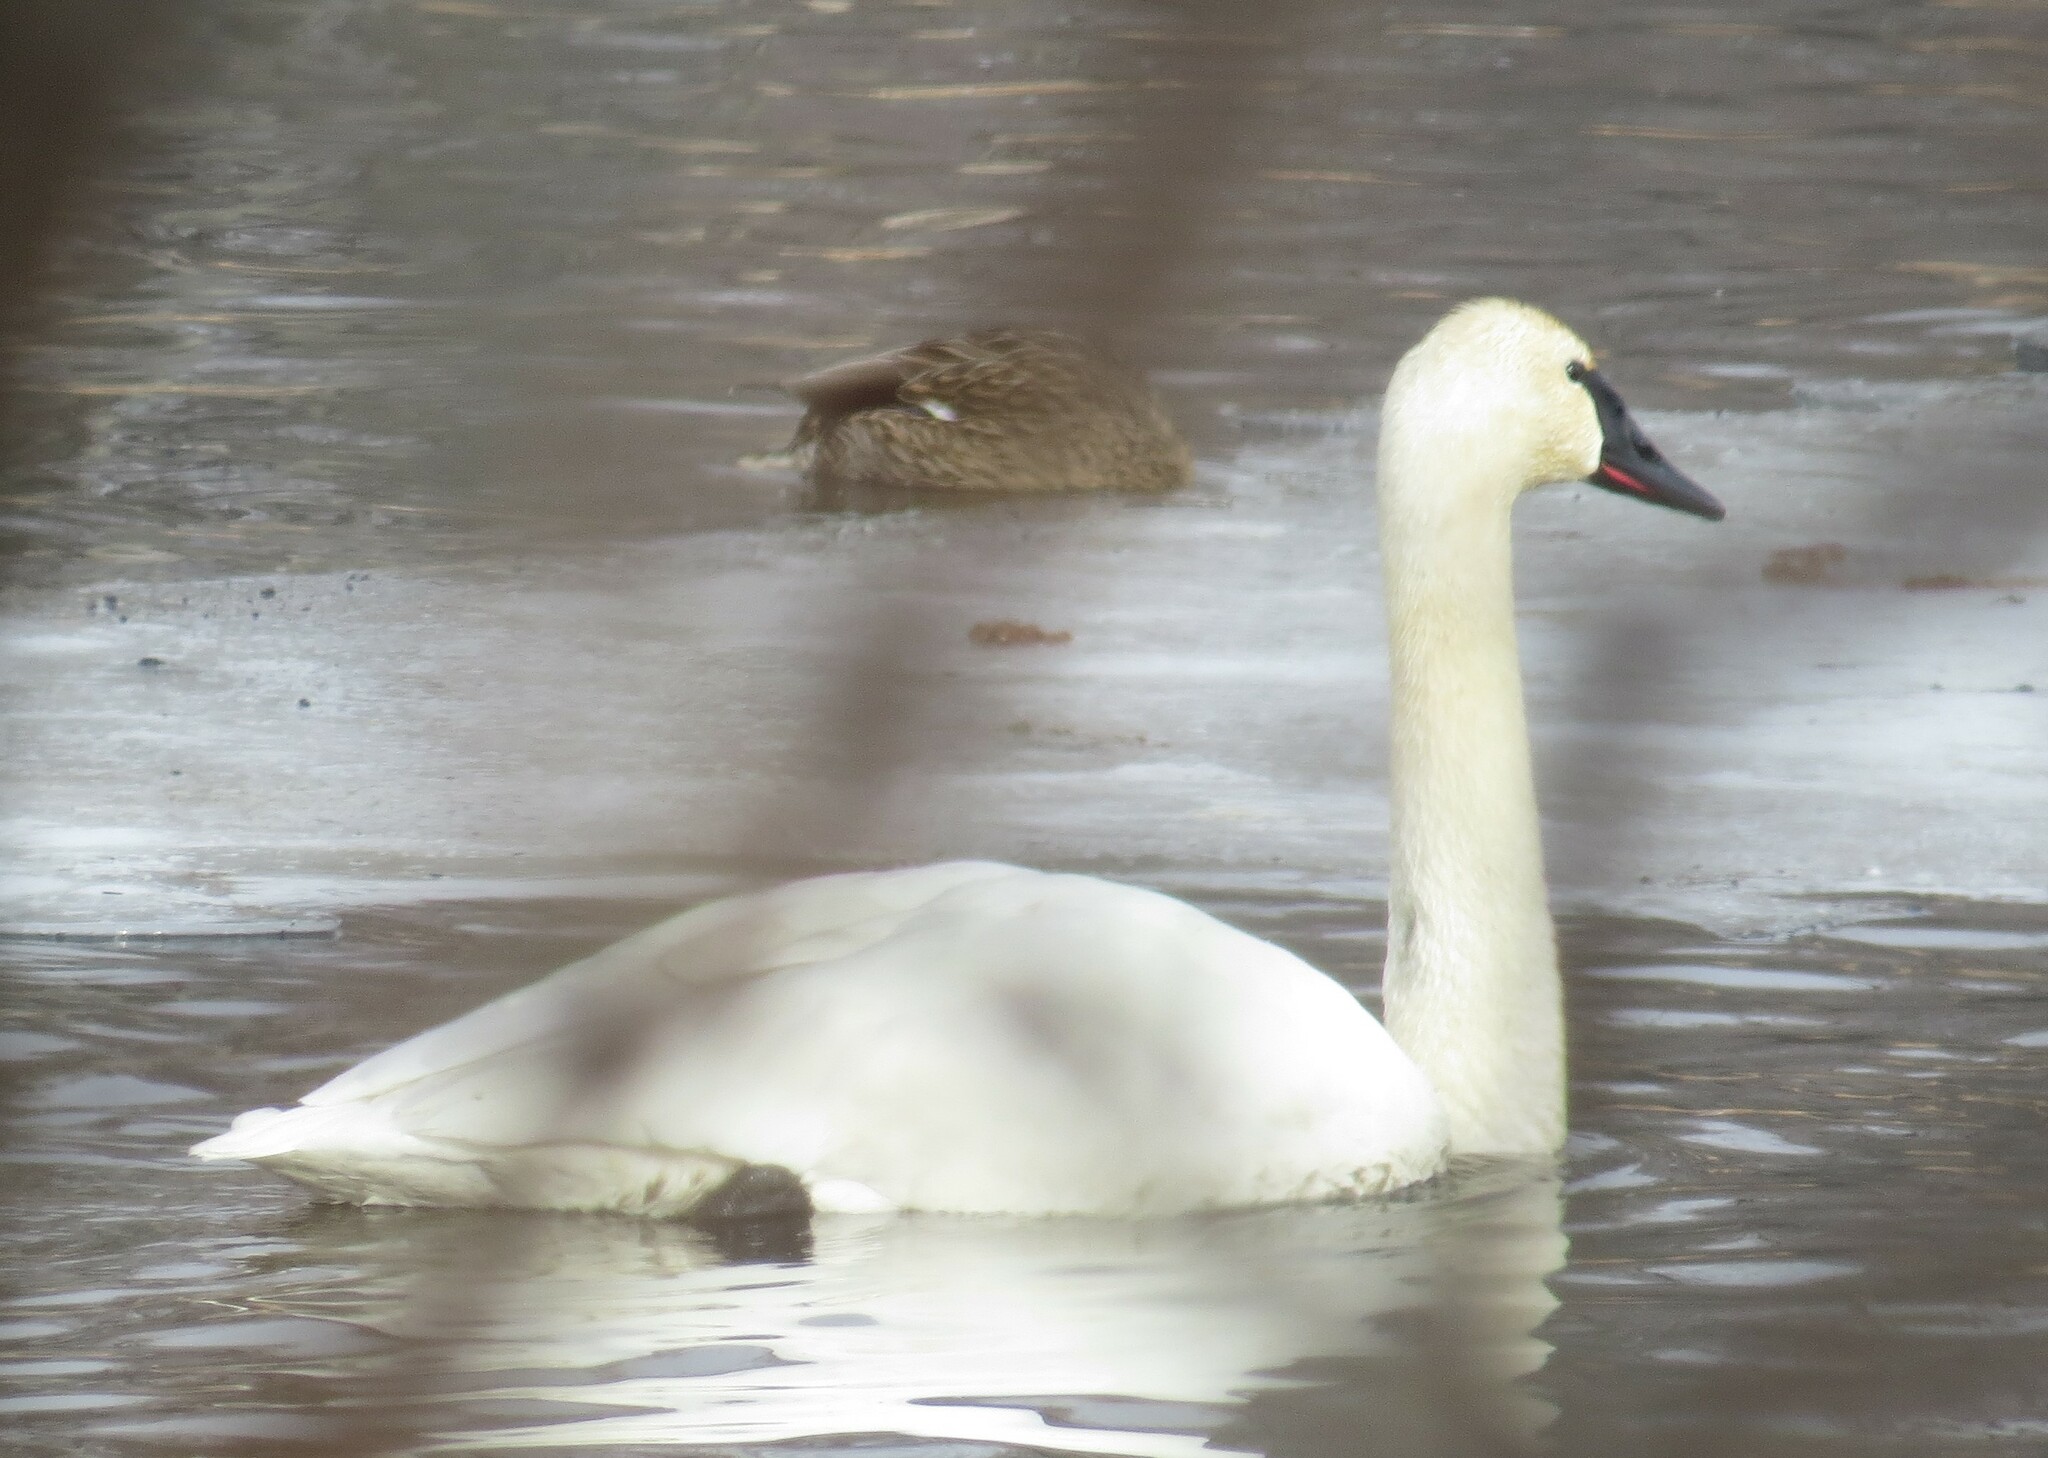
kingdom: Animalia
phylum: Chordata
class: Aves
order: Anseriformes
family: Anatidae
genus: Cygnus
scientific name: Cygnus buccinator
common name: Trumpeter swan
